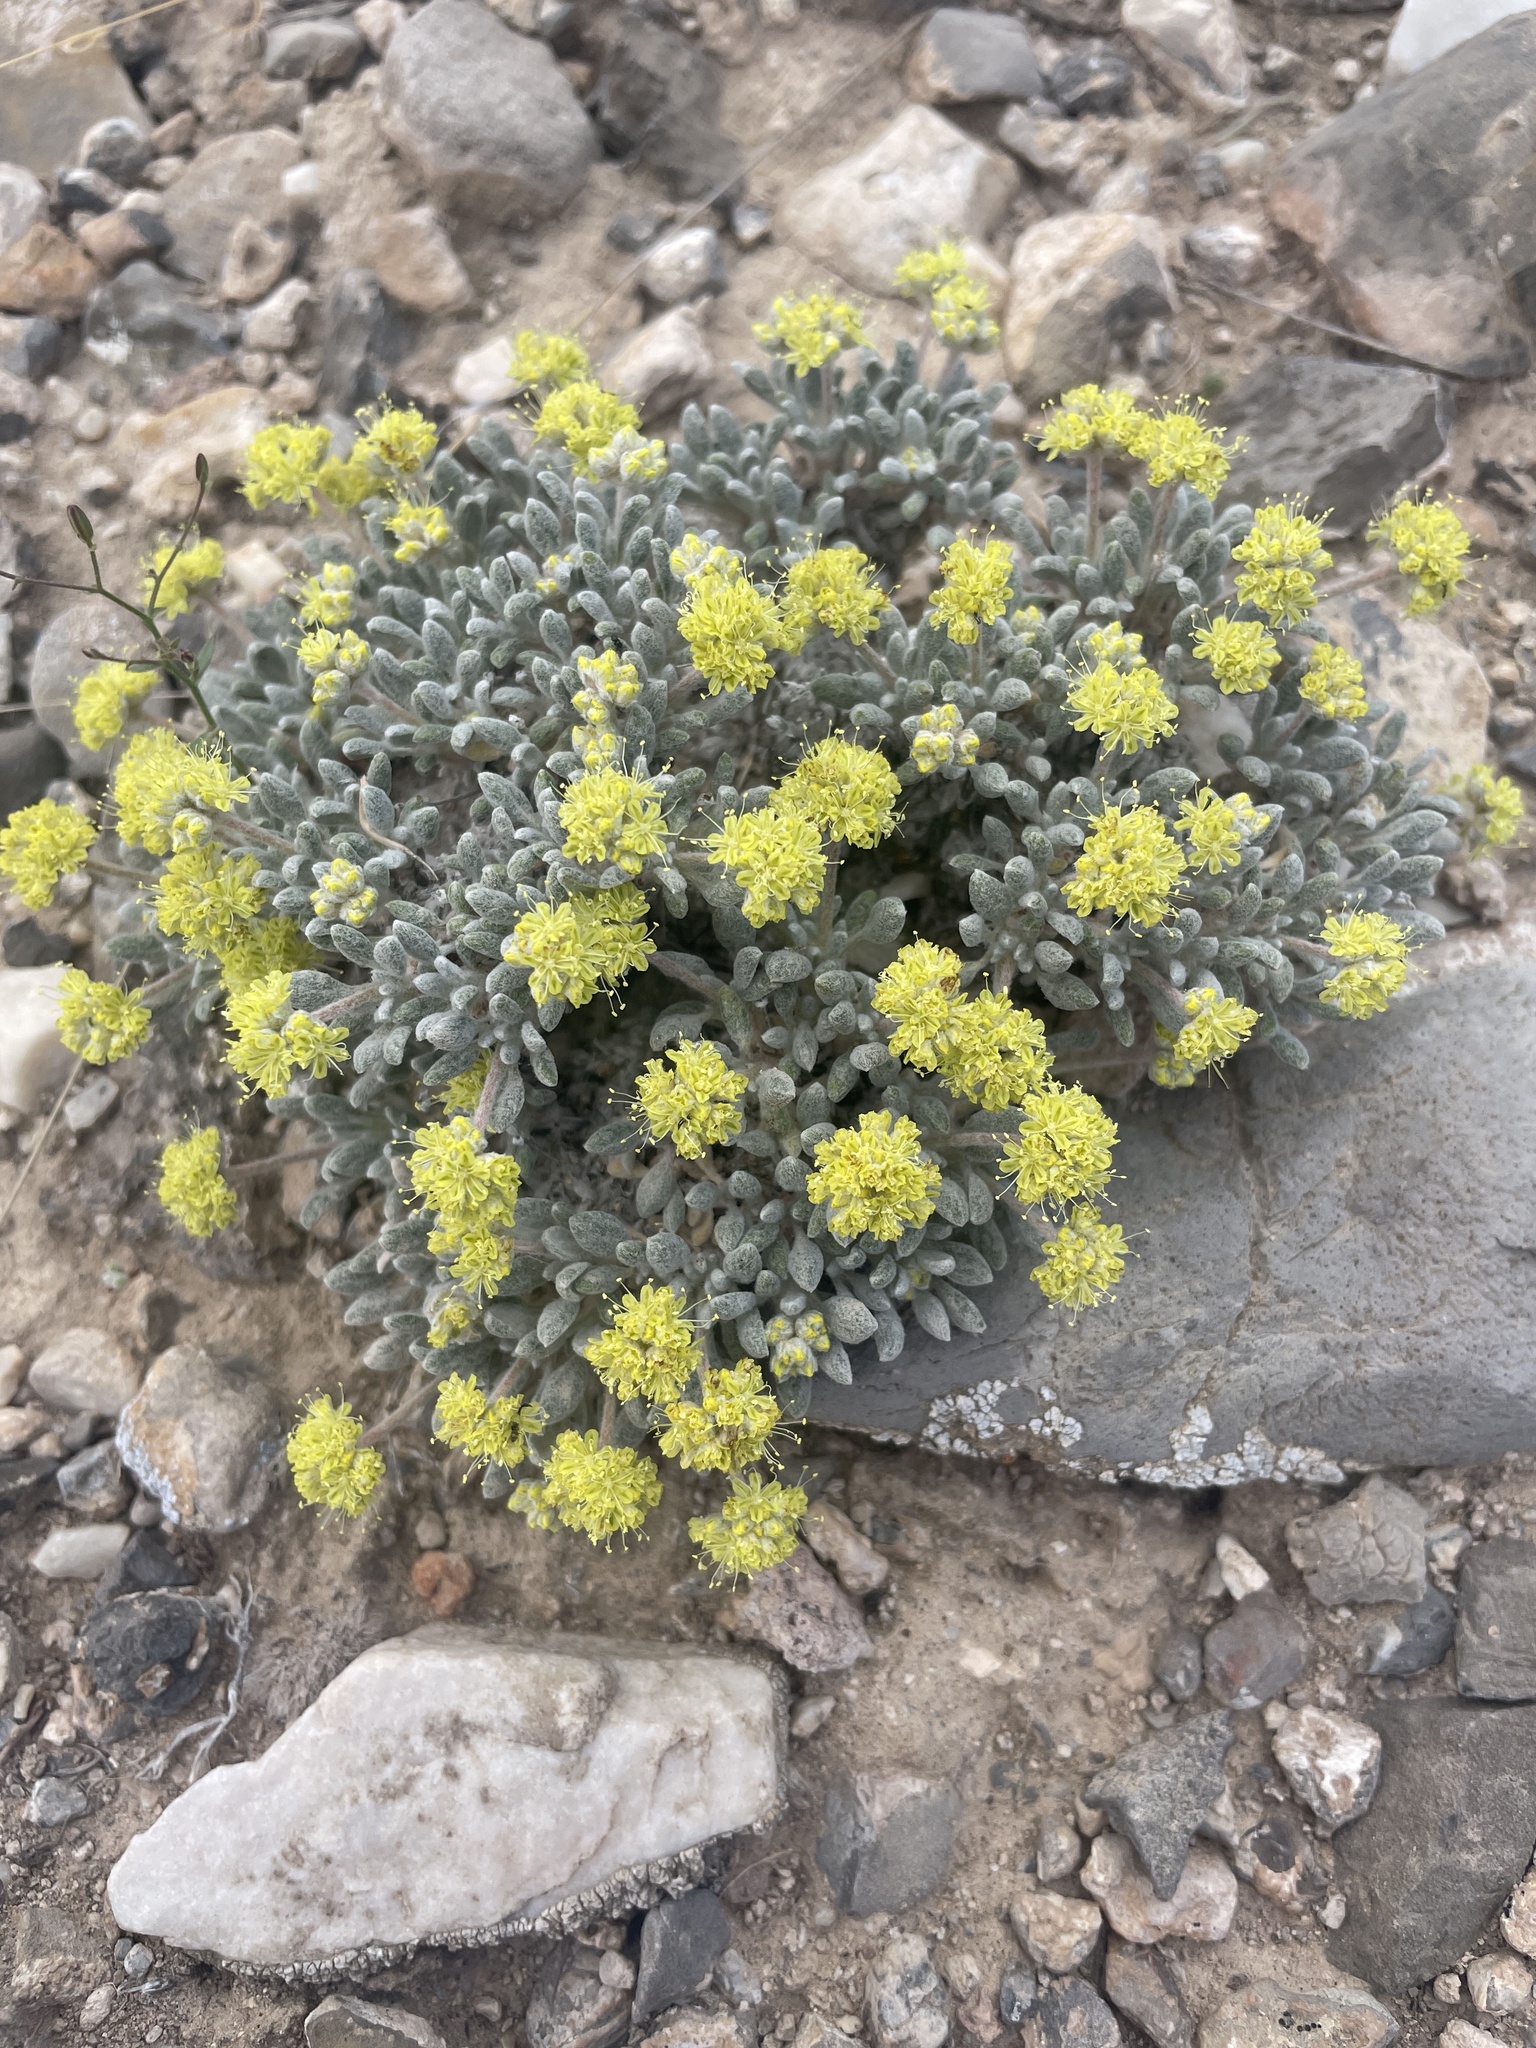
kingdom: Plantae
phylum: Tracheophyta
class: Magnoliopsida
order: Caryophyllales
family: Polygonaceae
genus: Eriogonum
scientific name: Eriogonum shockleyi
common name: Shockley's wild buckwheat
